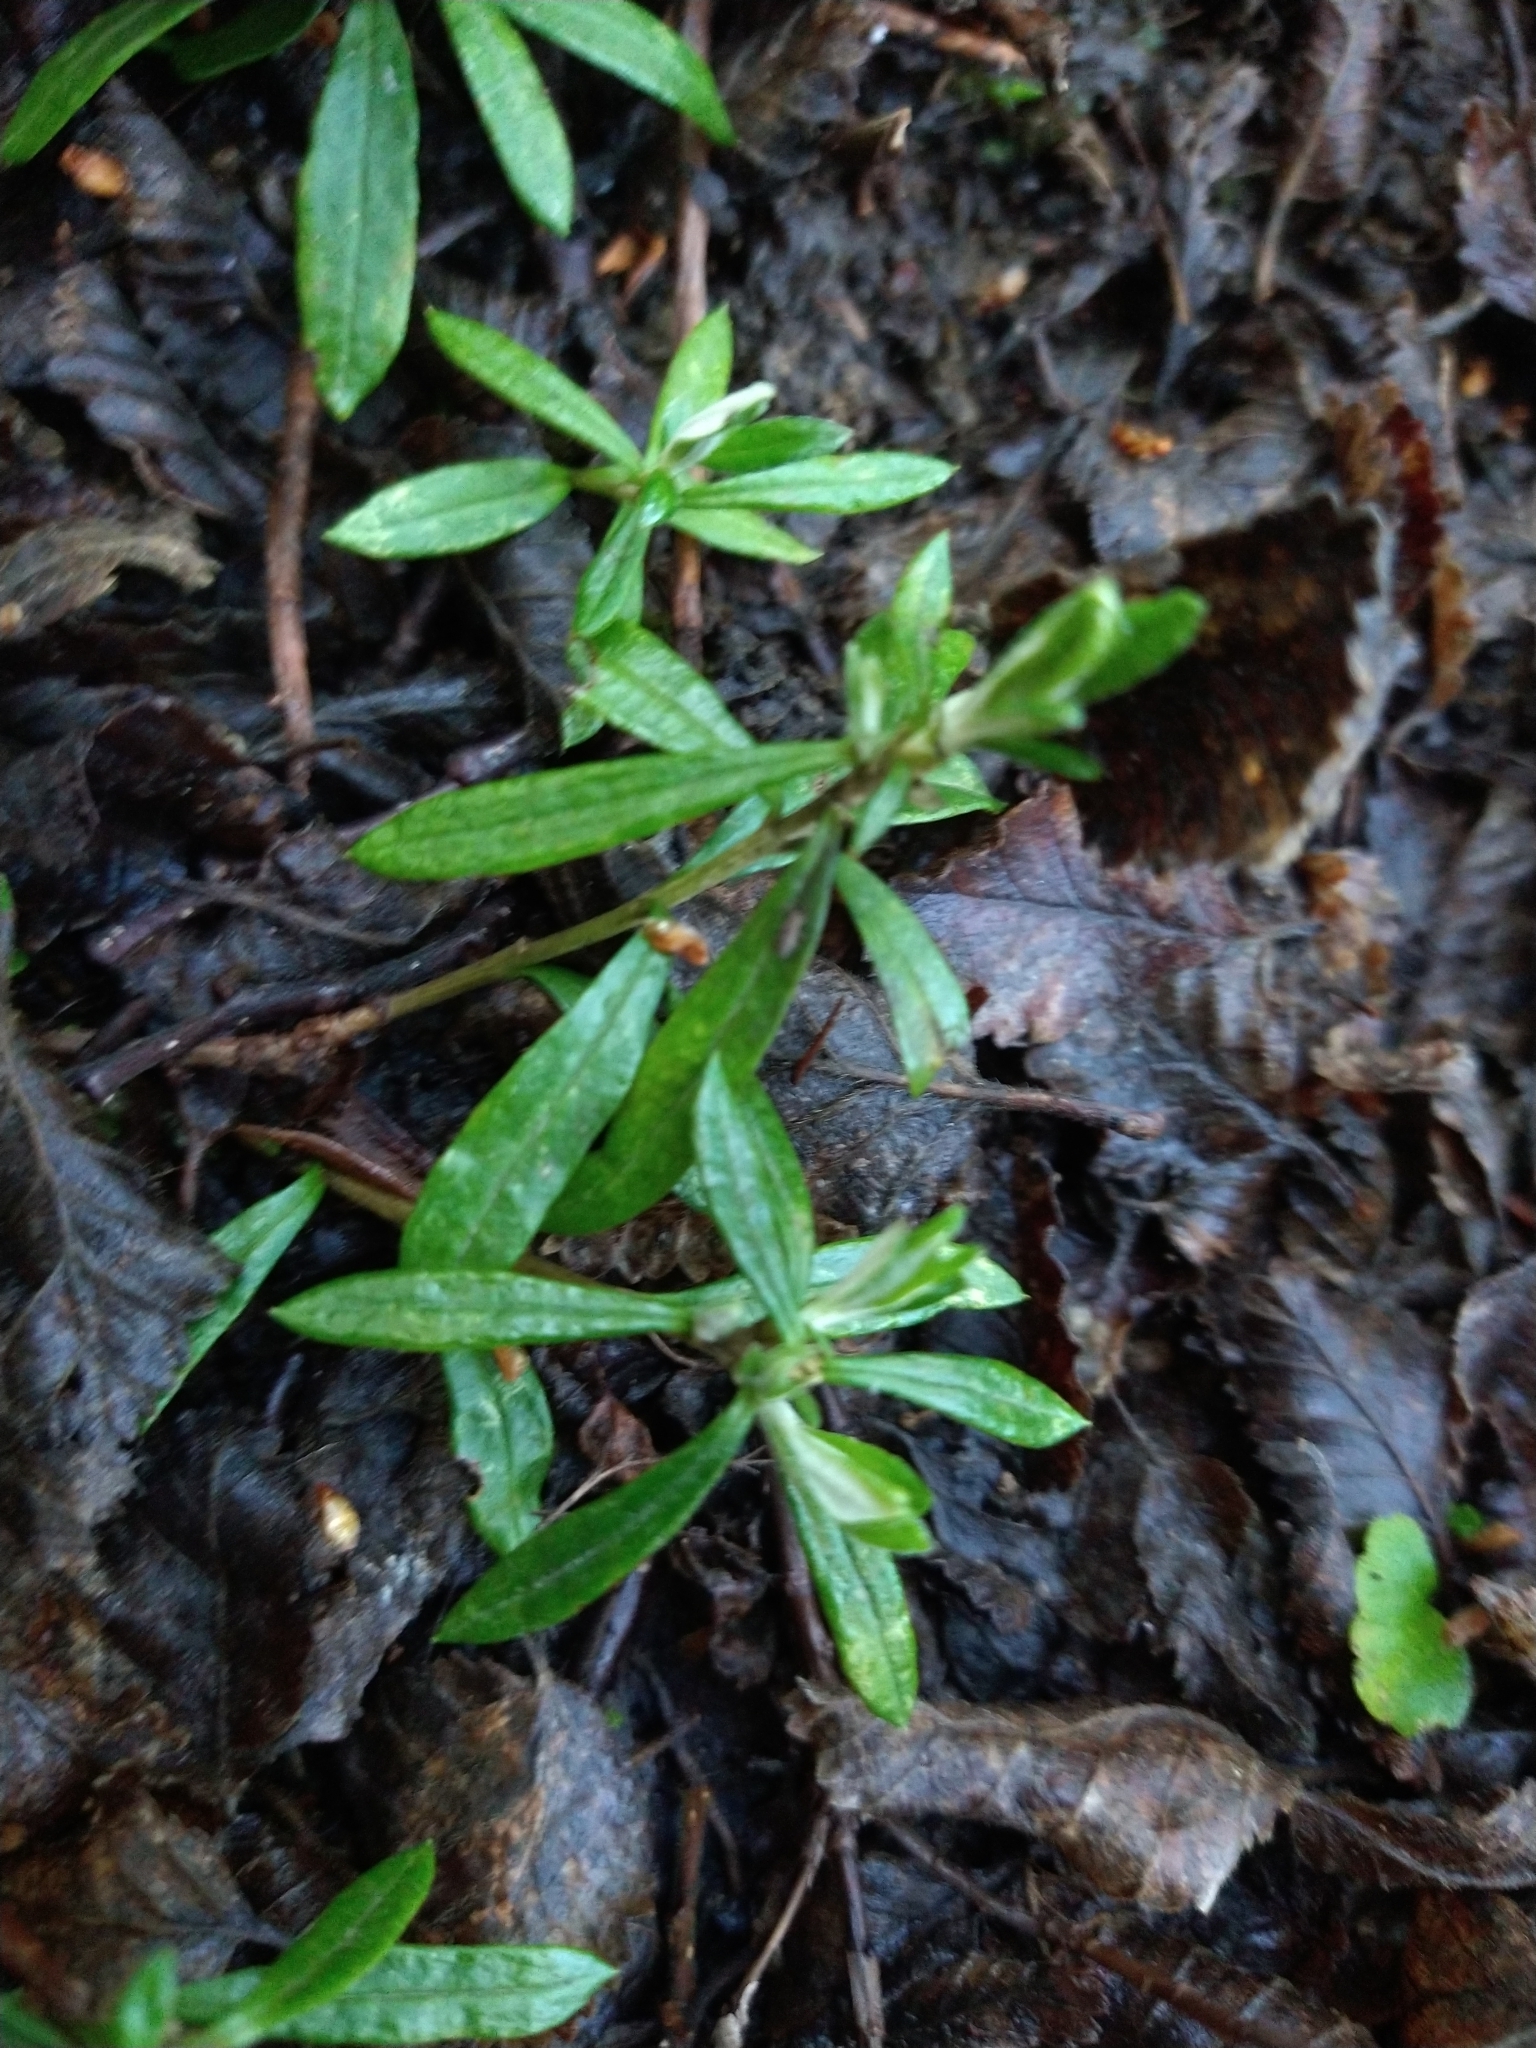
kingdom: Plantae
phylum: Tracheophyta
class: Magnoliopsida
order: Asterales
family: Asteraceae
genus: Chiliotrichum
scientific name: Chiliotrichum diffusum
